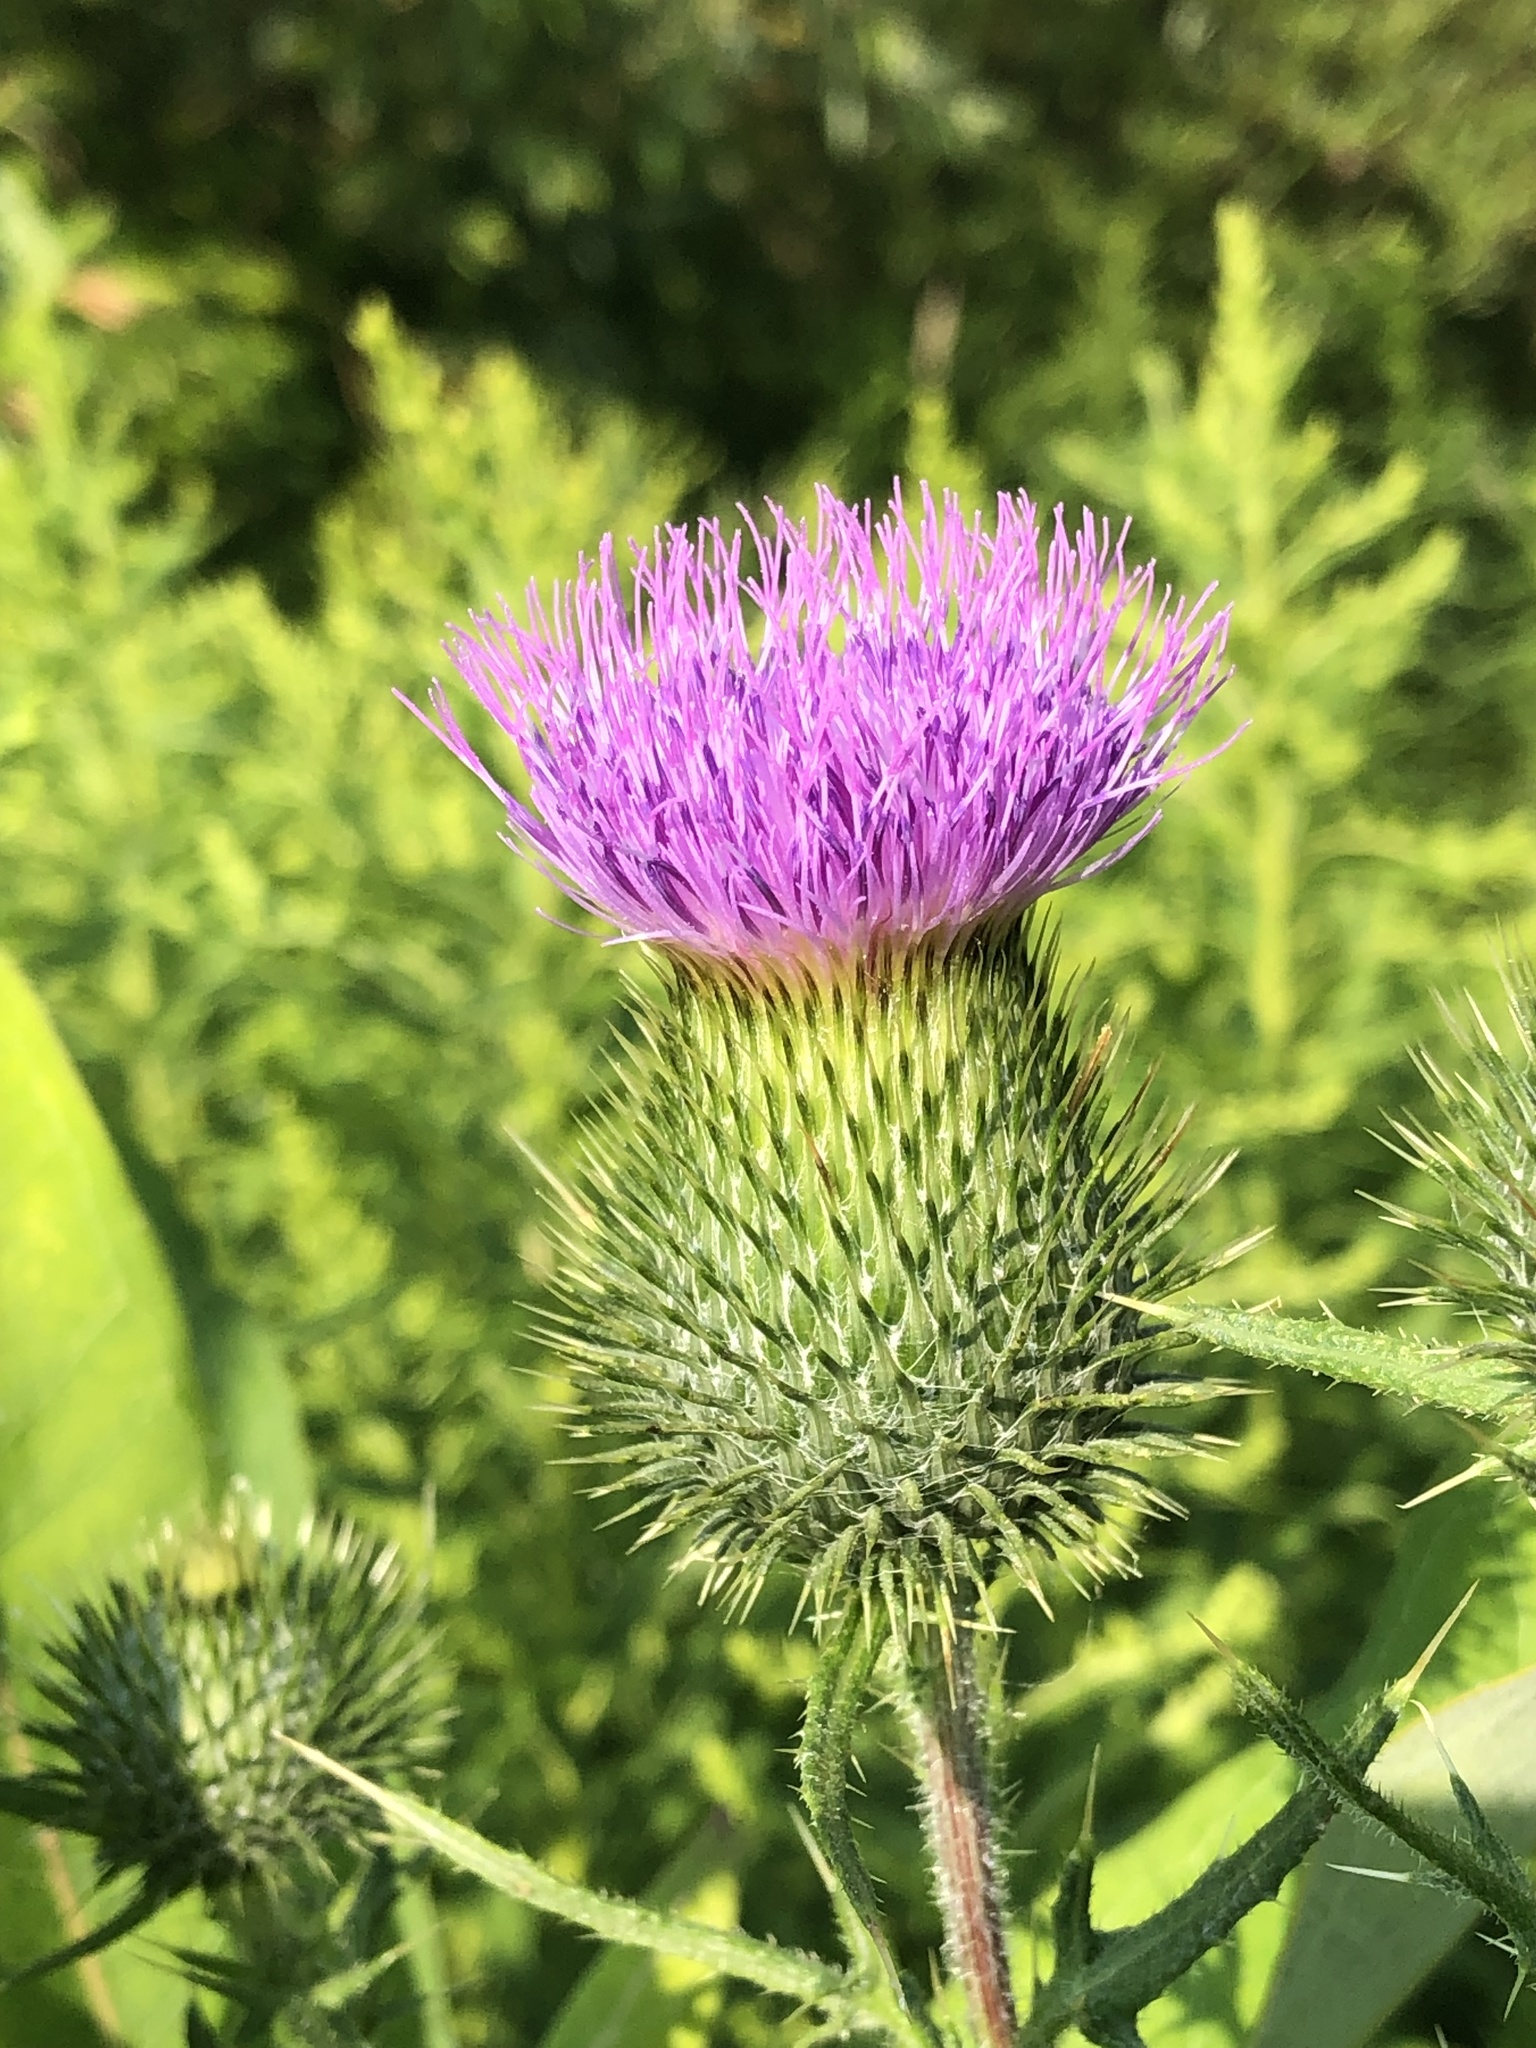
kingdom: Plantae
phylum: Tracheophyta
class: Magnoliopsida
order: Asterales
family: Asteraceae
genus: Cirsium
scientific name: Cirsium vulgare
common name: Bull thistle
